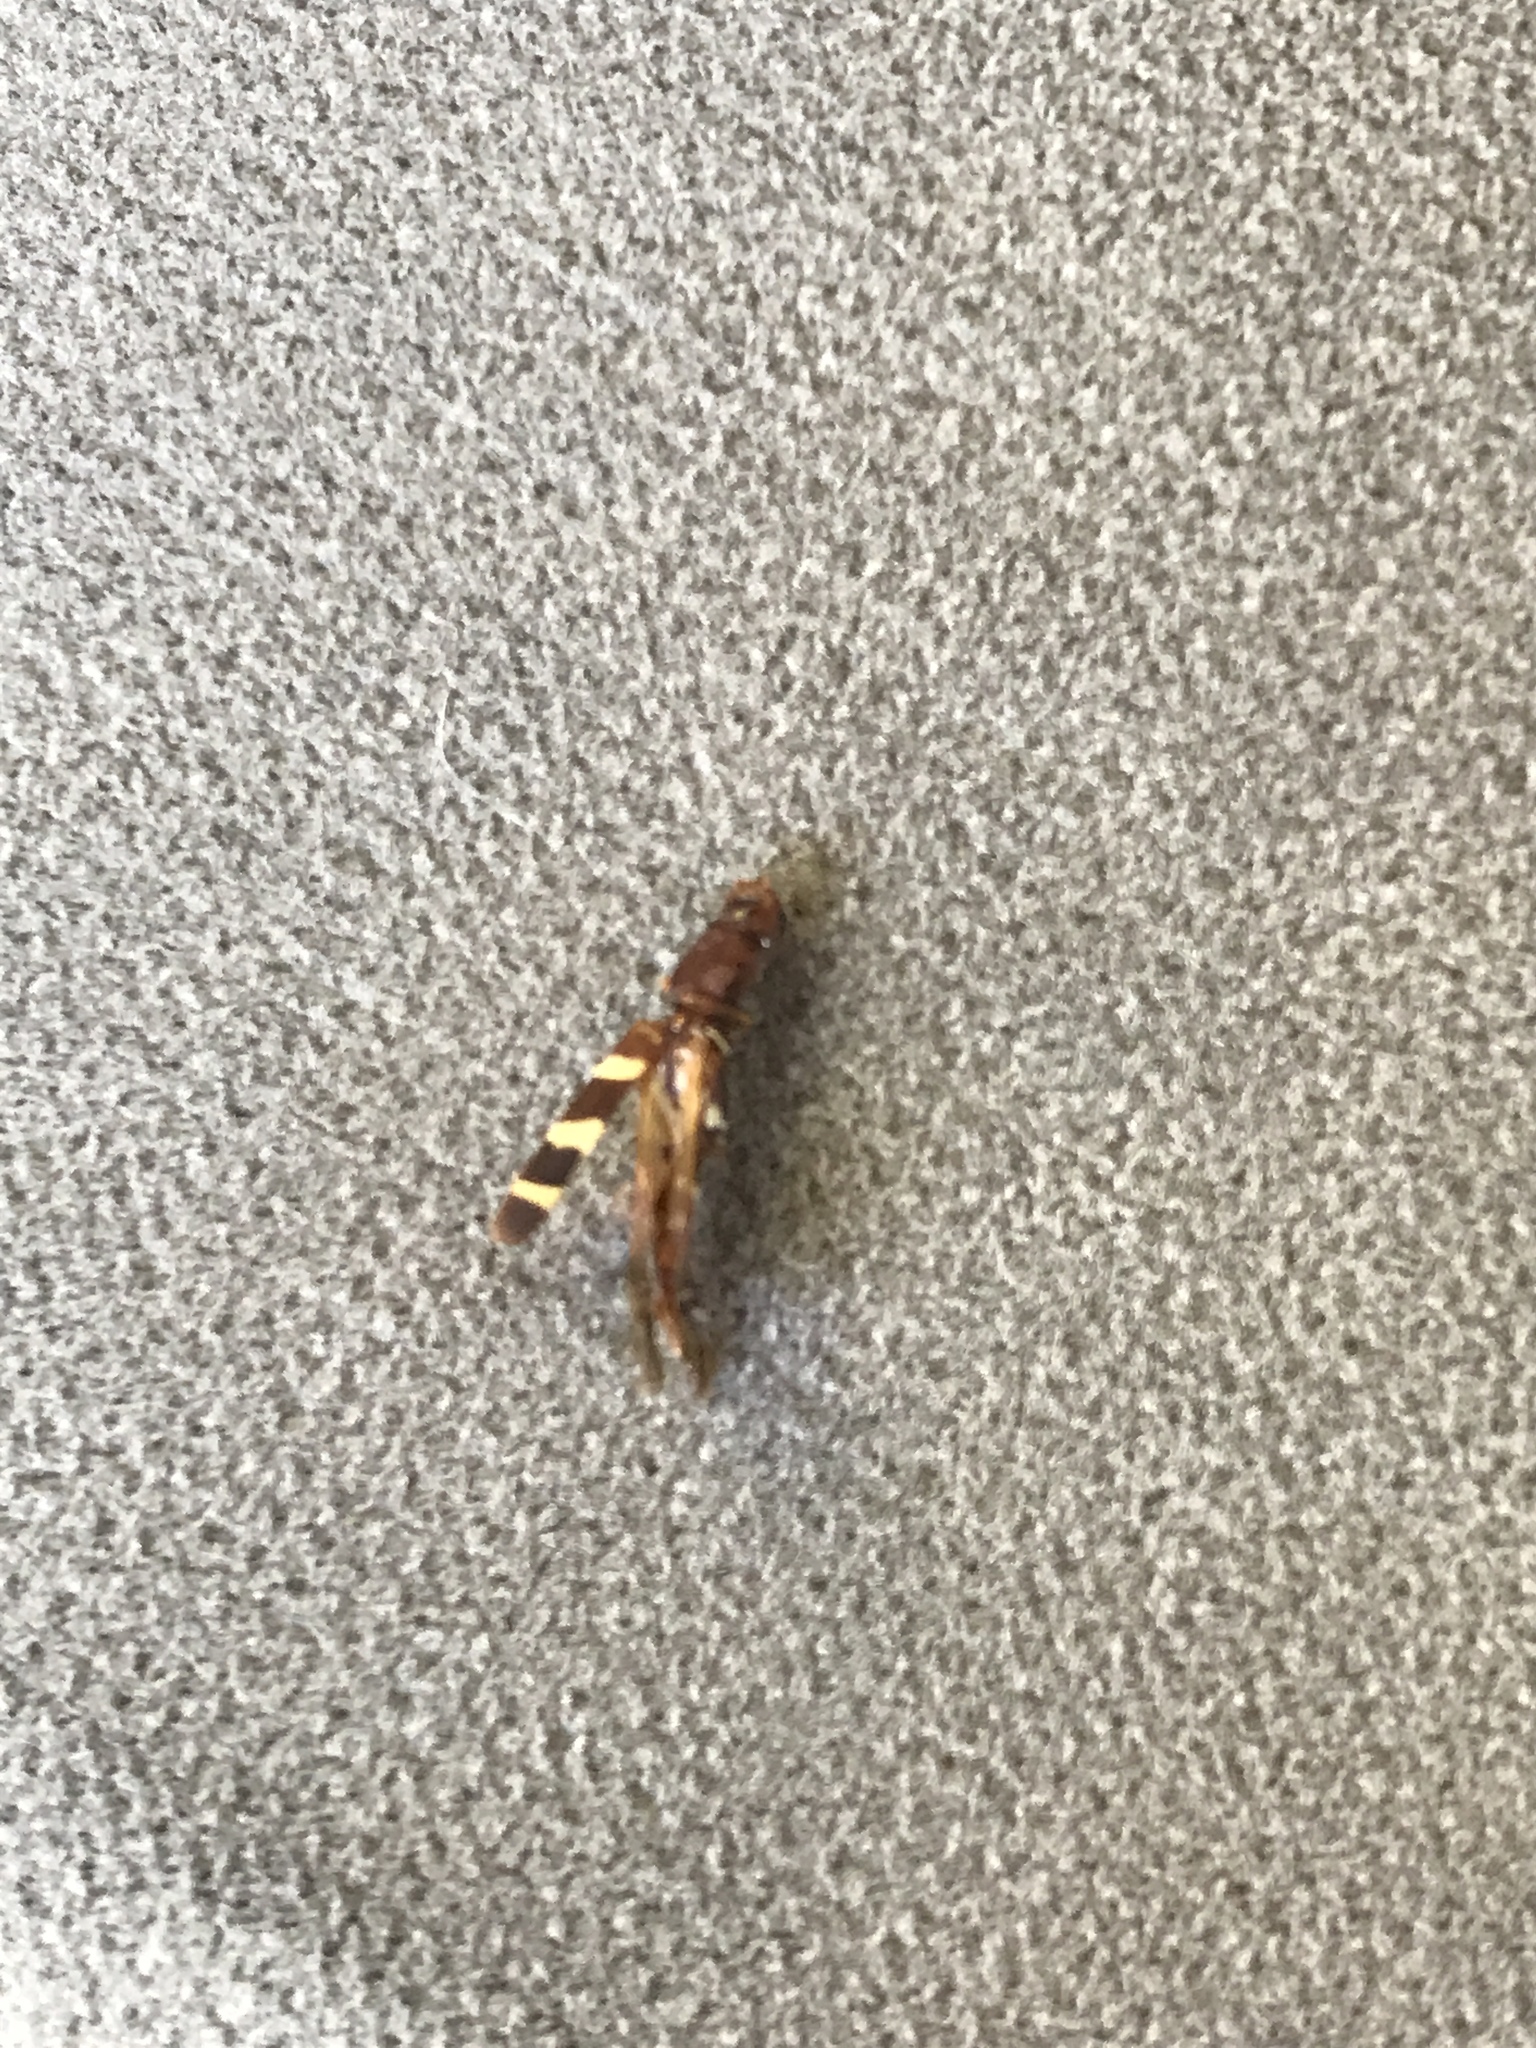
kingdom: Animalia
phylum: Arthropoda
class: Insecta
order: Coleoptera
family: Cerambycidae
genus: Neoclytus
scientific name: Neoclytus acuminatus
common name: Read-headed ash borer
